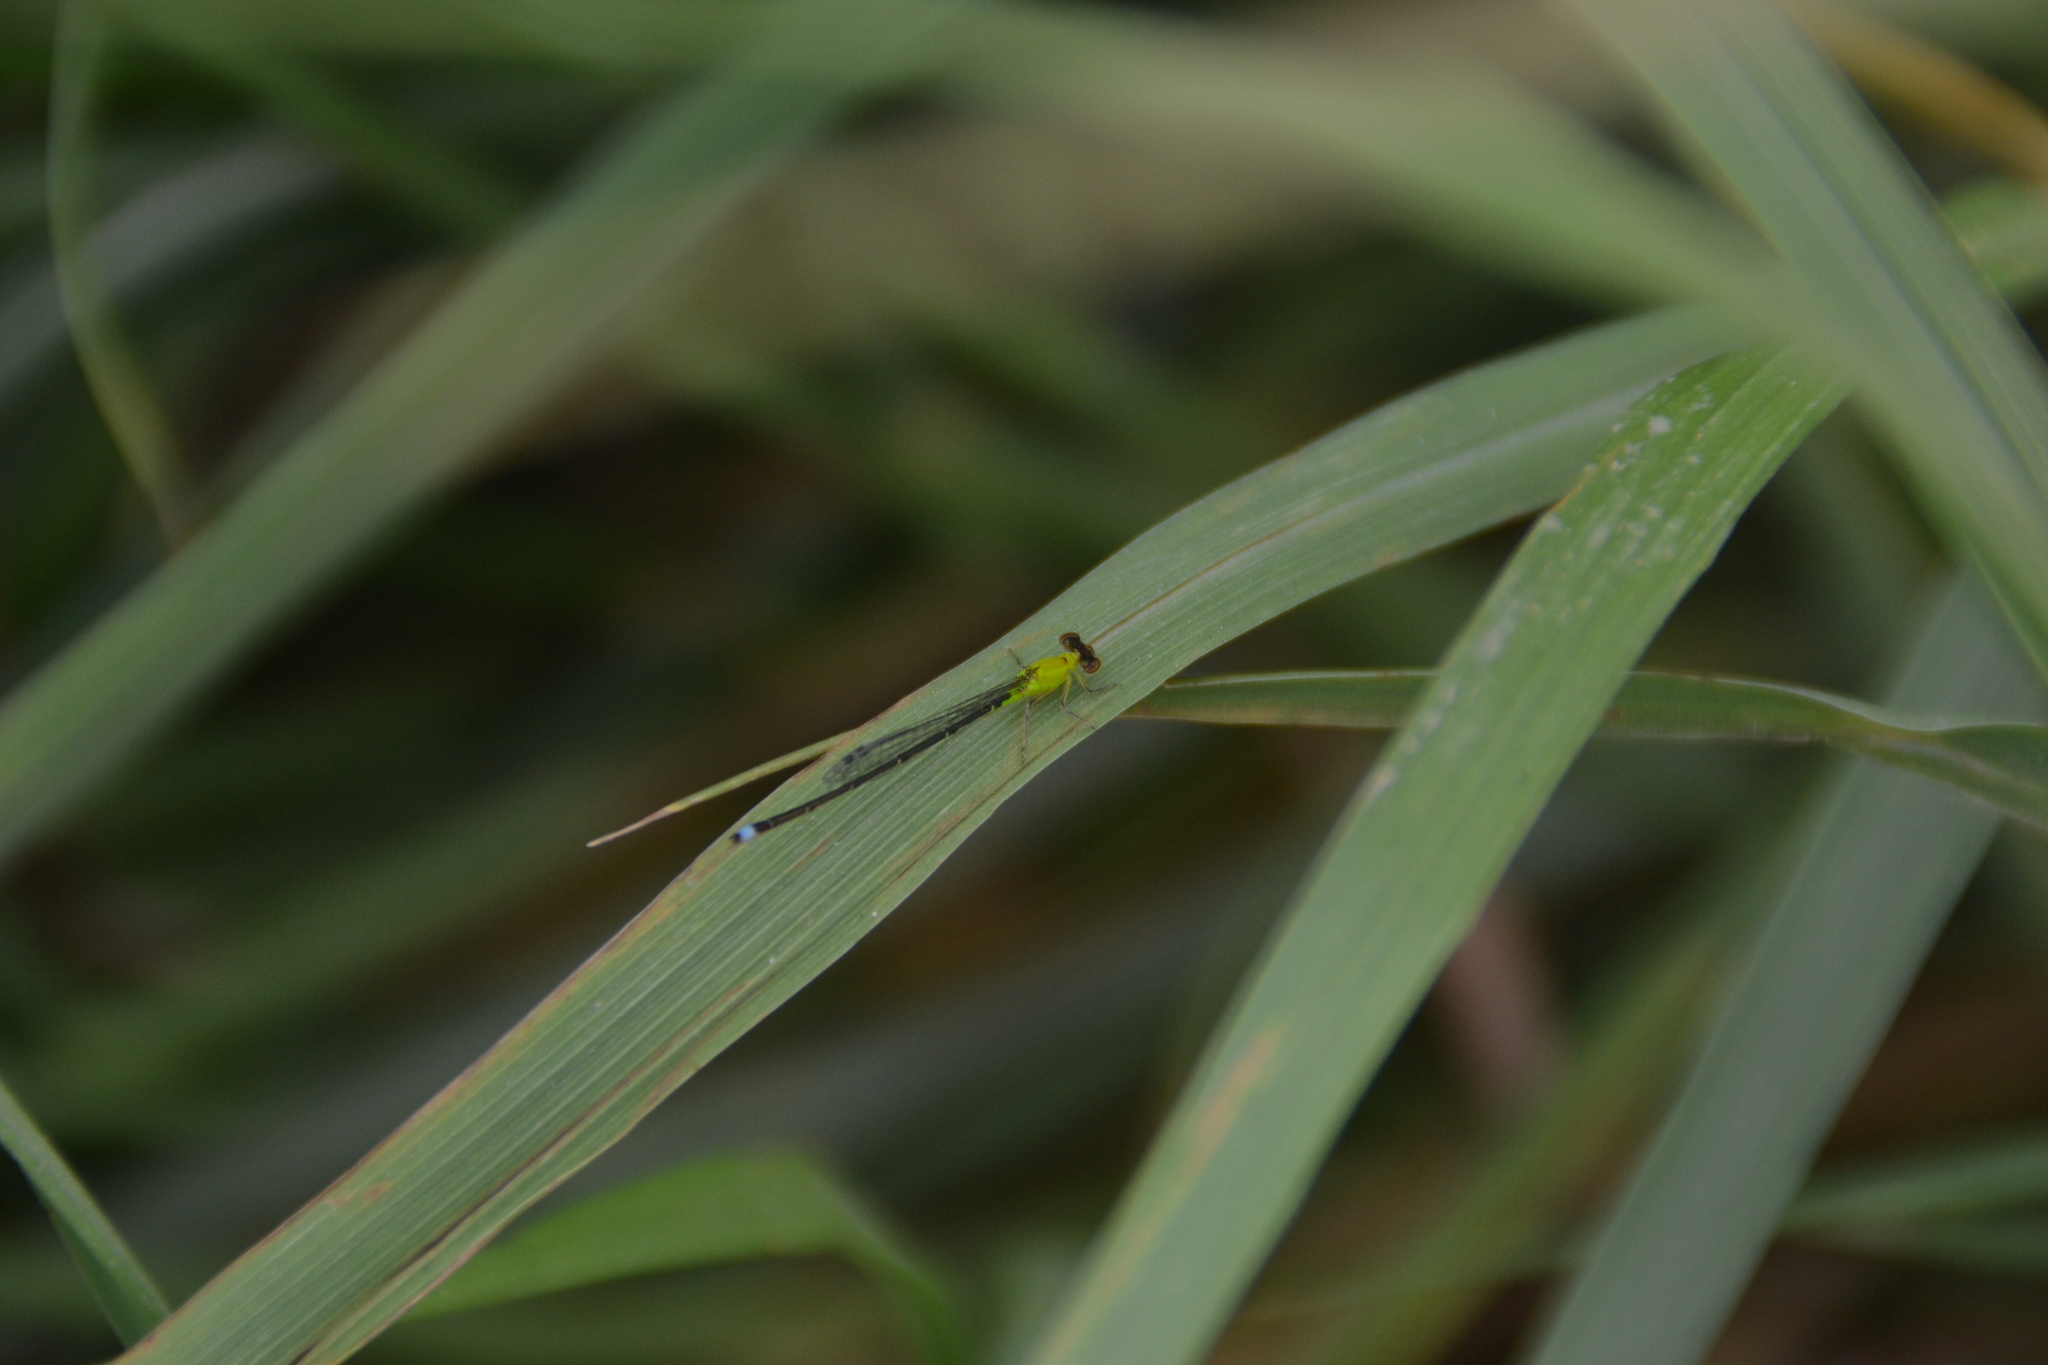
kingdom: Animalia
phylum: Arthropoda
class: Insecta
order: Odonata
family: Coenagrionidae
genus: Ischnura
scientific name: Ischnura capreolus
